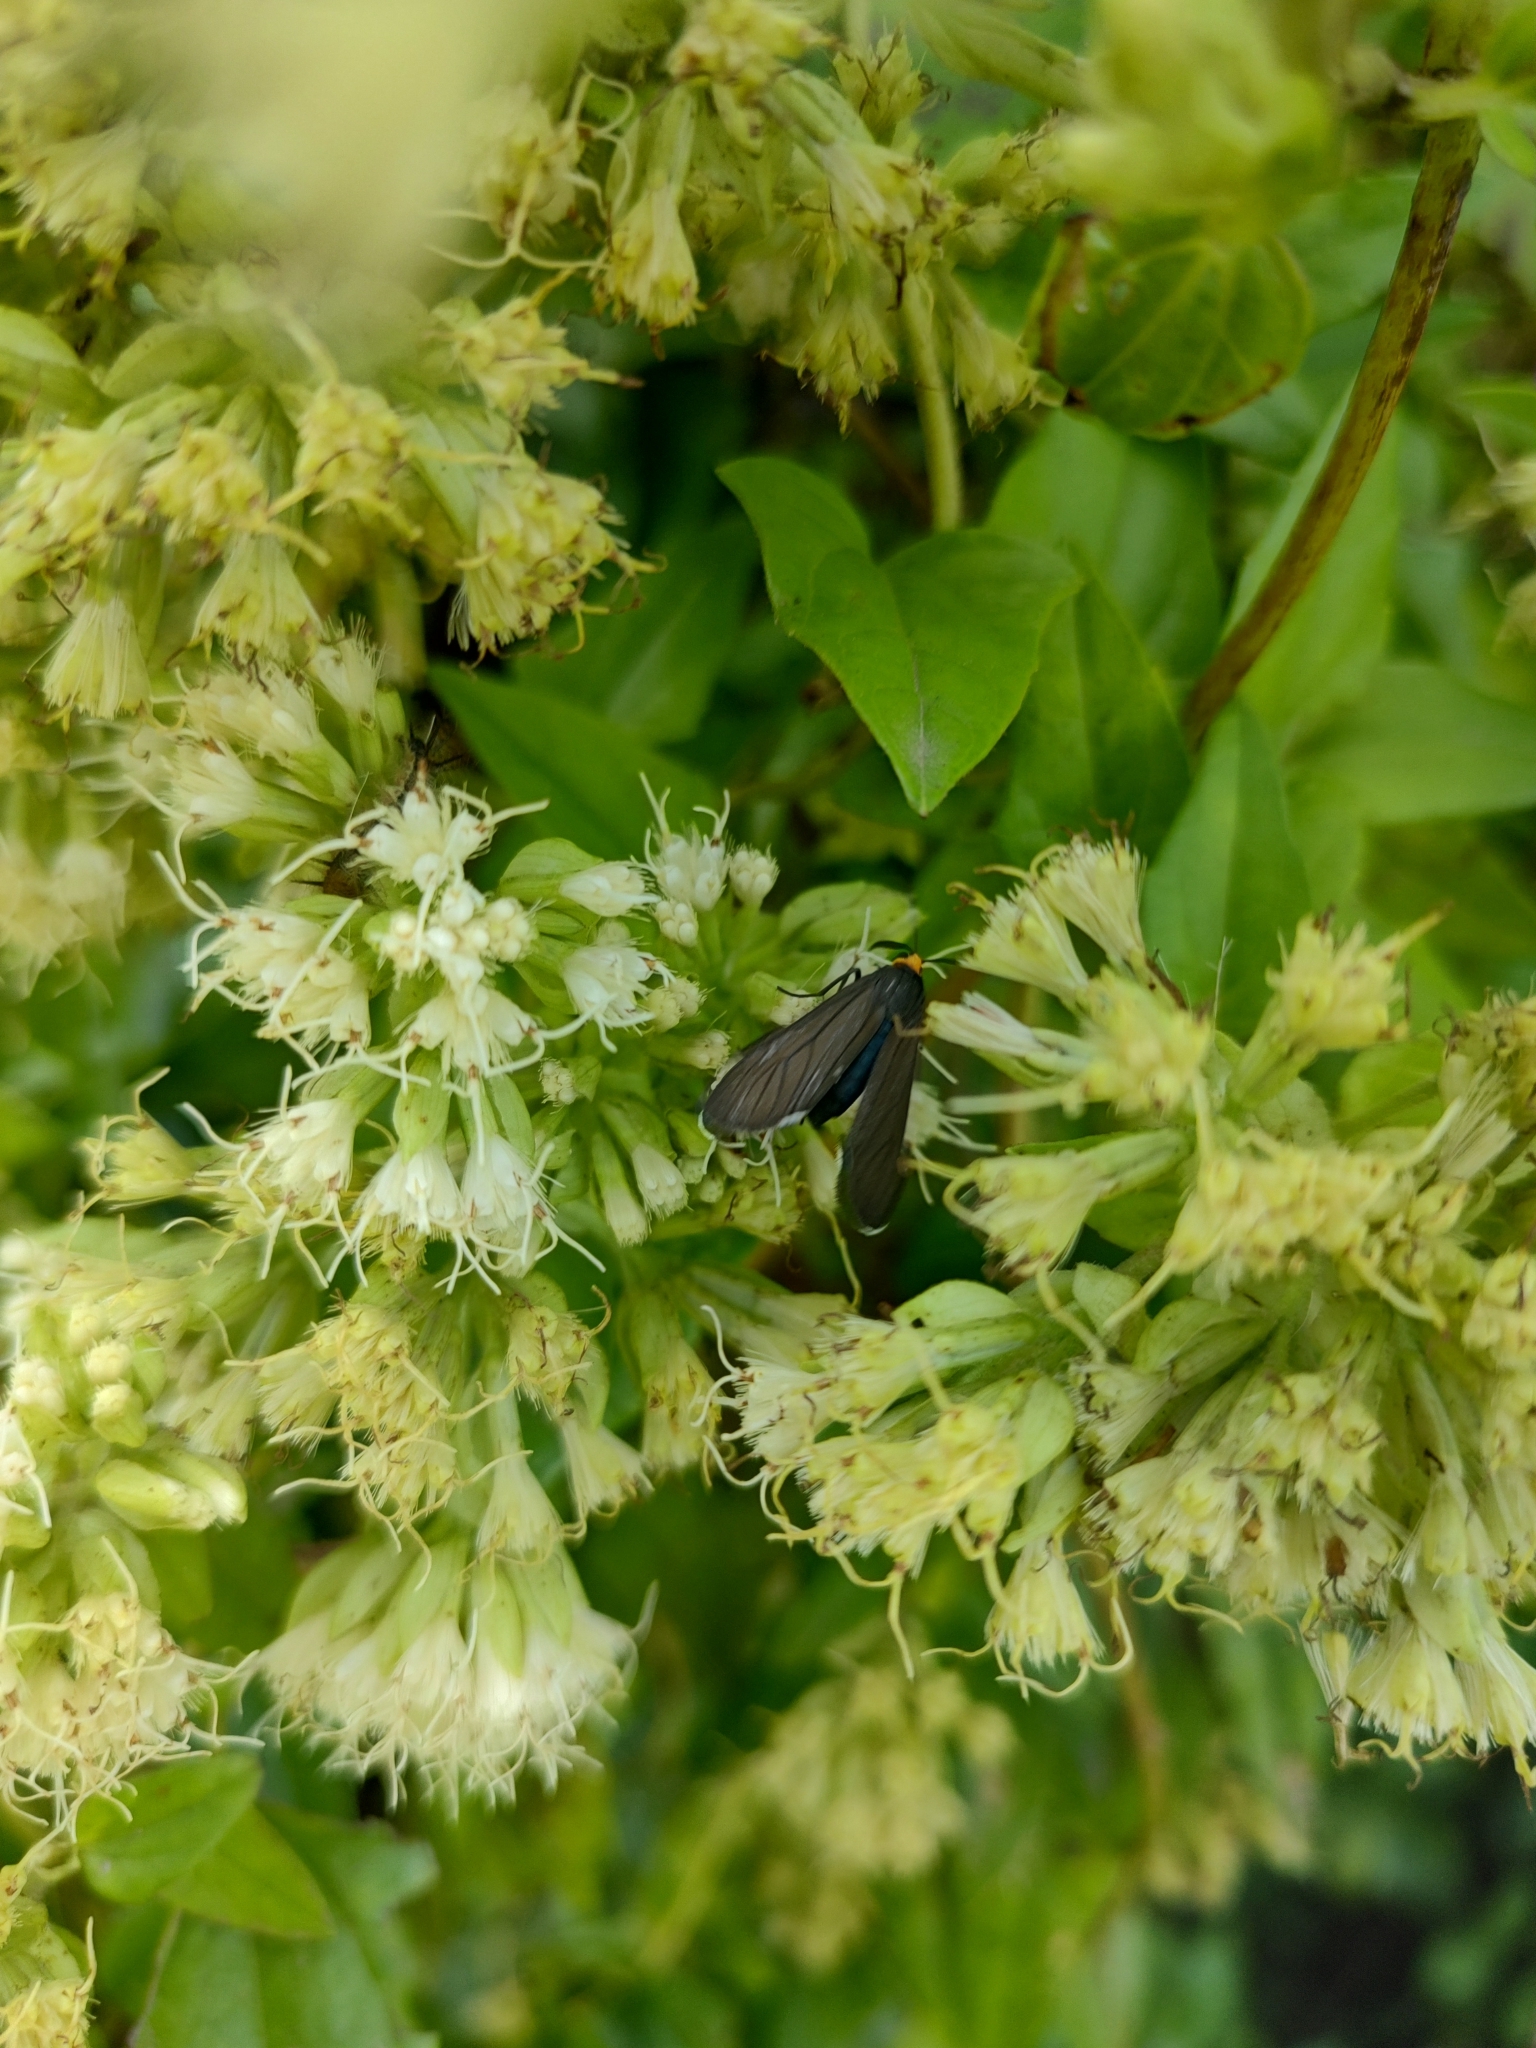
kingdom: Animalia
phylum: Arthropoda
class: Insecta
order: Lepidoptera
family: Erebidae
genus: Ctenucha
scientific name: Ctenucha rubriceps
